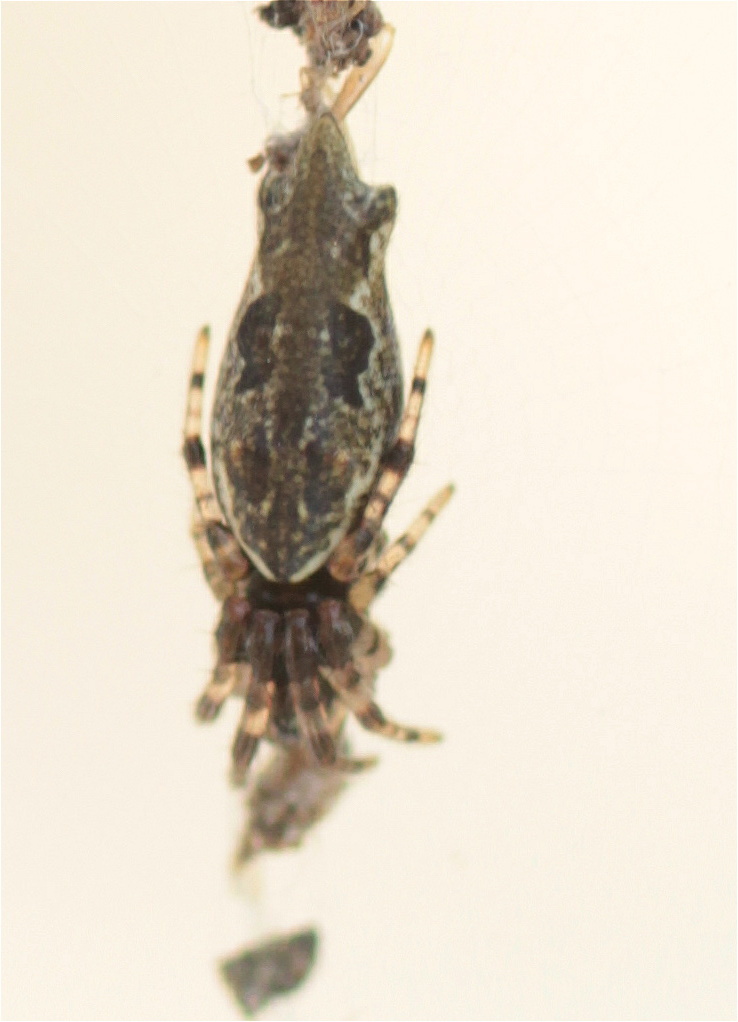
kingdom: Animalia
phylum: Arthropoda
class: Arachnida
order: Araneae
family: Araneidae
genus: Cyclosa
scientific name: Cyclosa bifurcata
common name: Orb weavers
